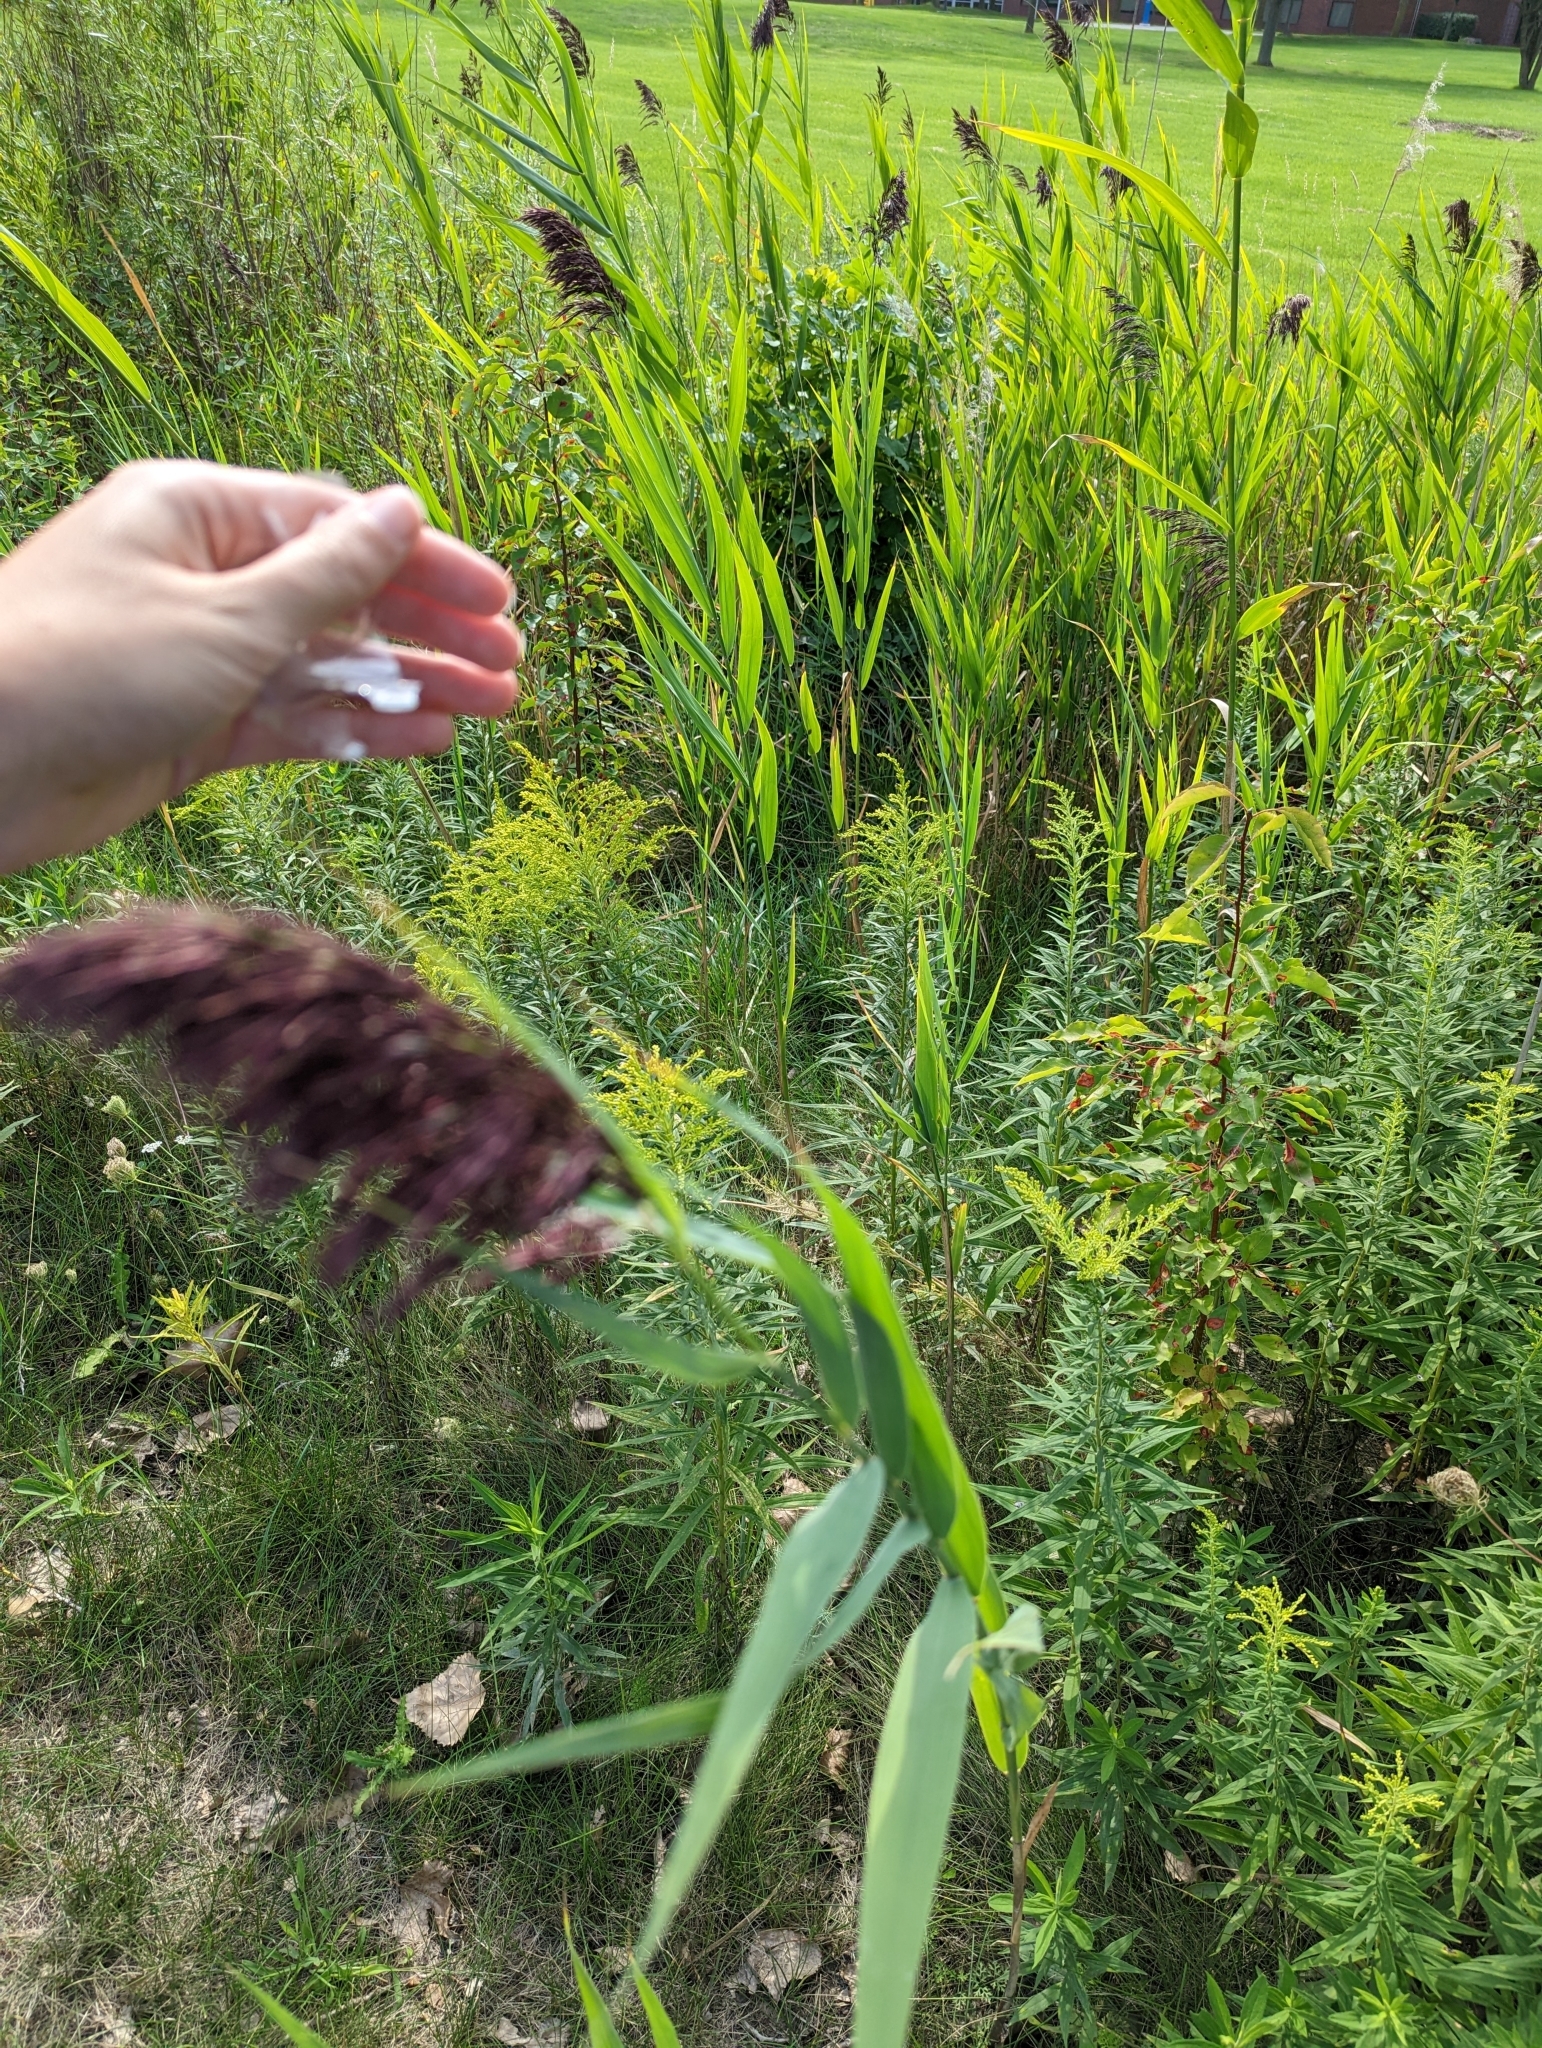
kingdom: Plantae
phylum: Tracheophyta
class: Liliopsida
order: Poales
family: Poaceae
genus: Phragmites
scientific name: Phragmites australis
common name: Common reed
